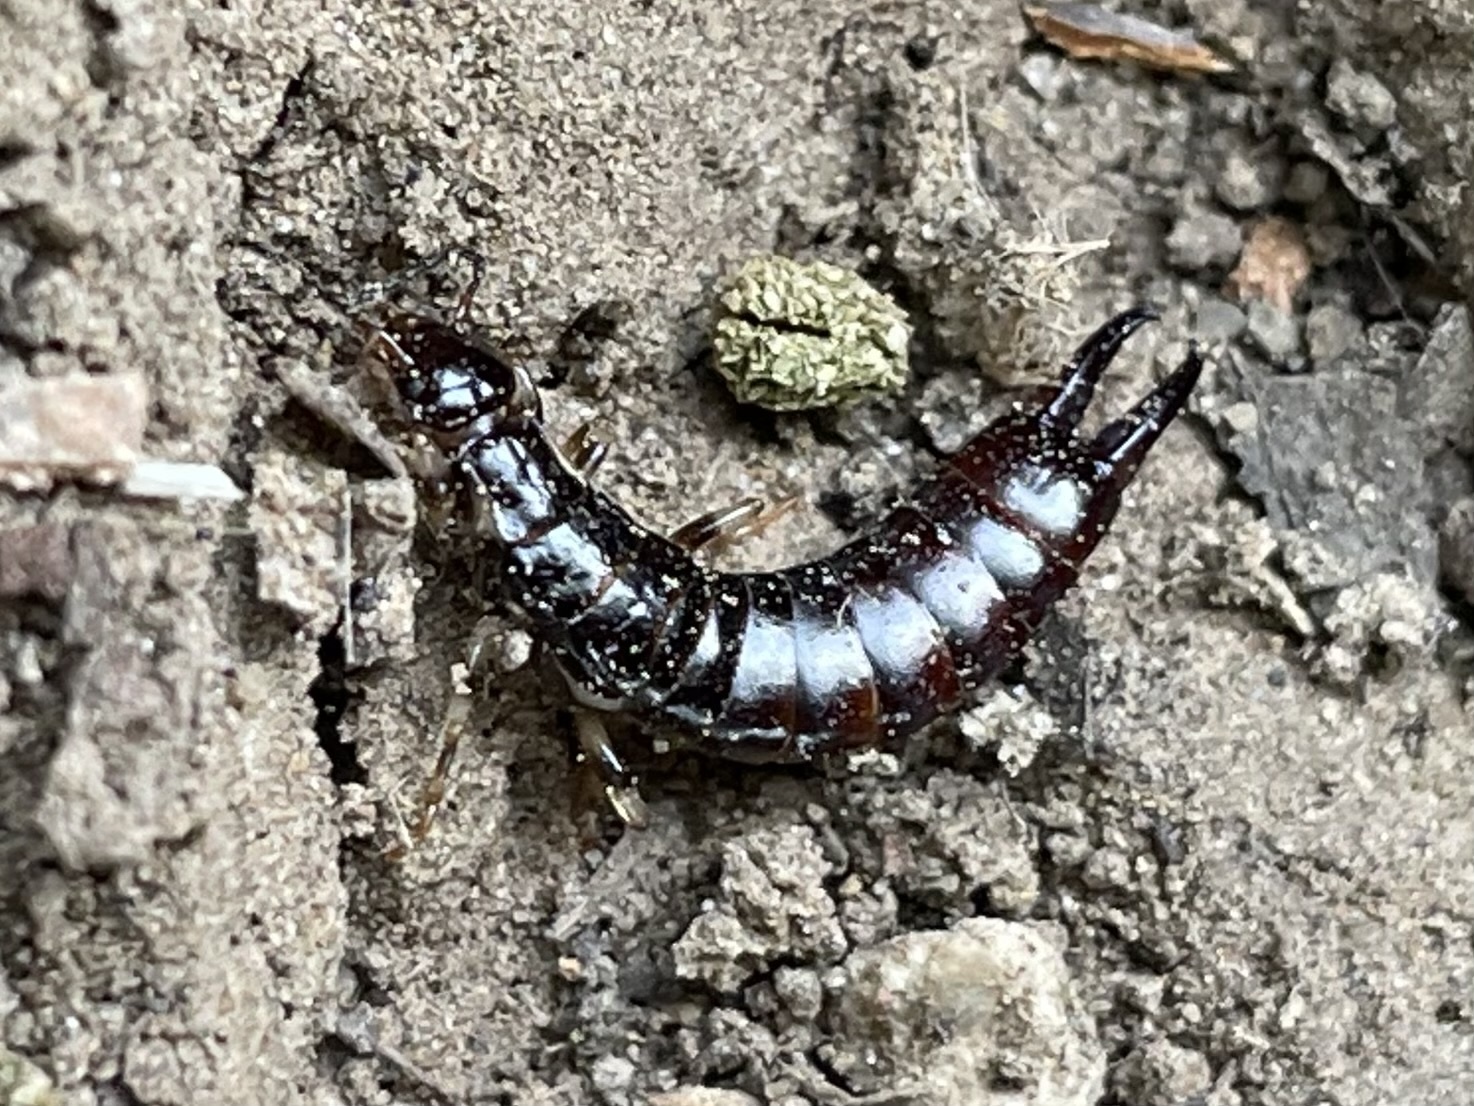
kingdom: Animalia
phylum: Arthropoda
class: Insecta
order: Dermaptera
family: Anisolabididae
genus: Euborellia
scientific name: Euborellia annulipes
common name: Ringlegged earwig
